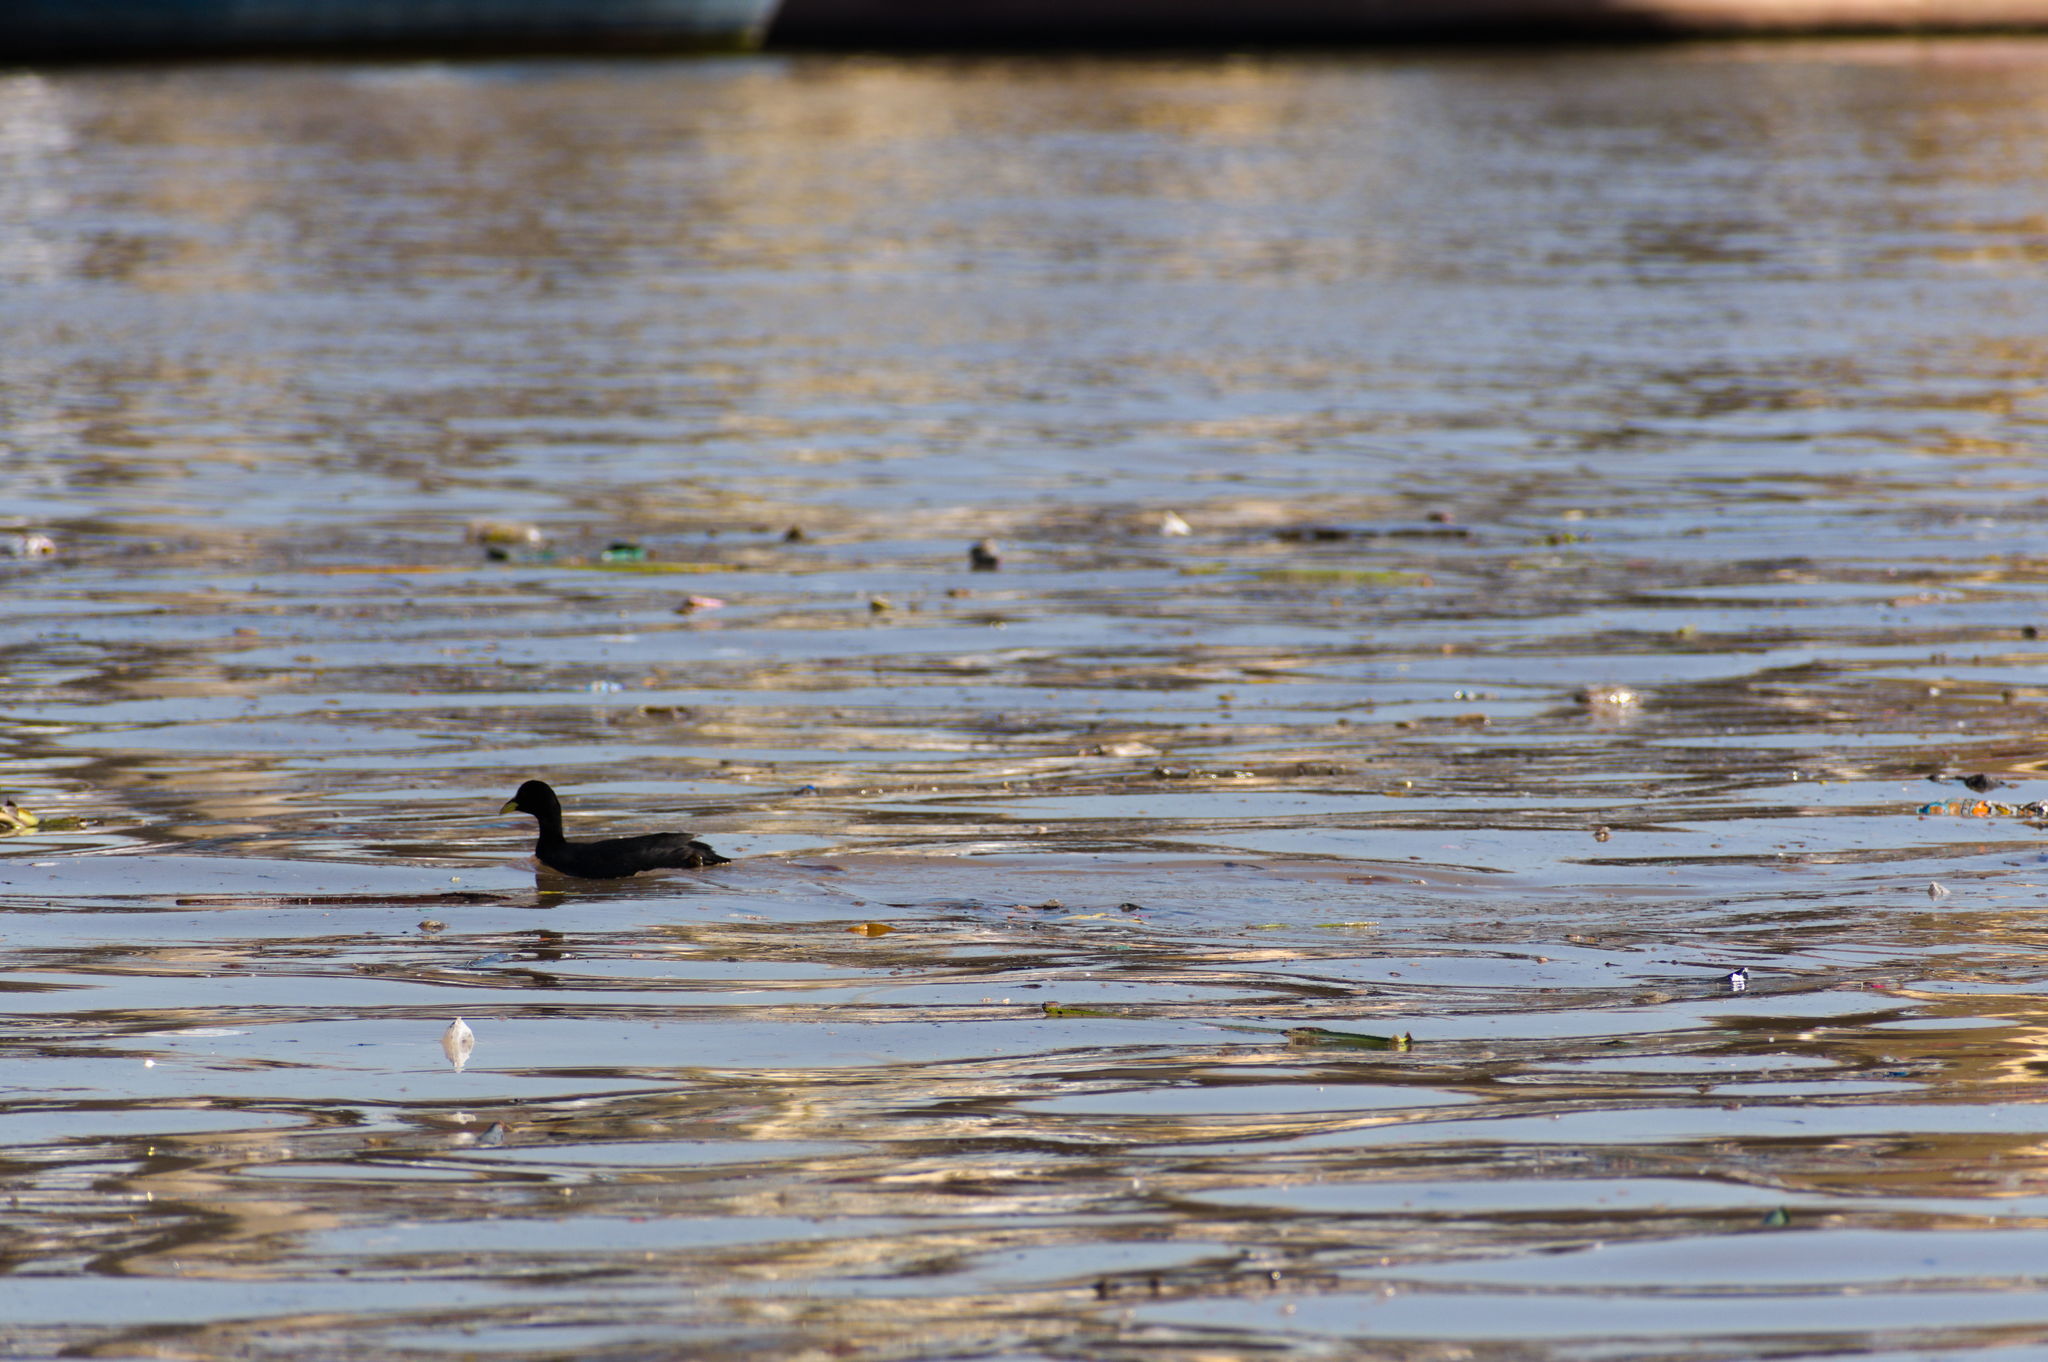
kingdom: Animalia
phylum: Chordata
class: Aves
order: Gruiformes
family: Rallidae
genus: Fulica
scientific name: Fulica armillata
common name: Red-gartered coot
